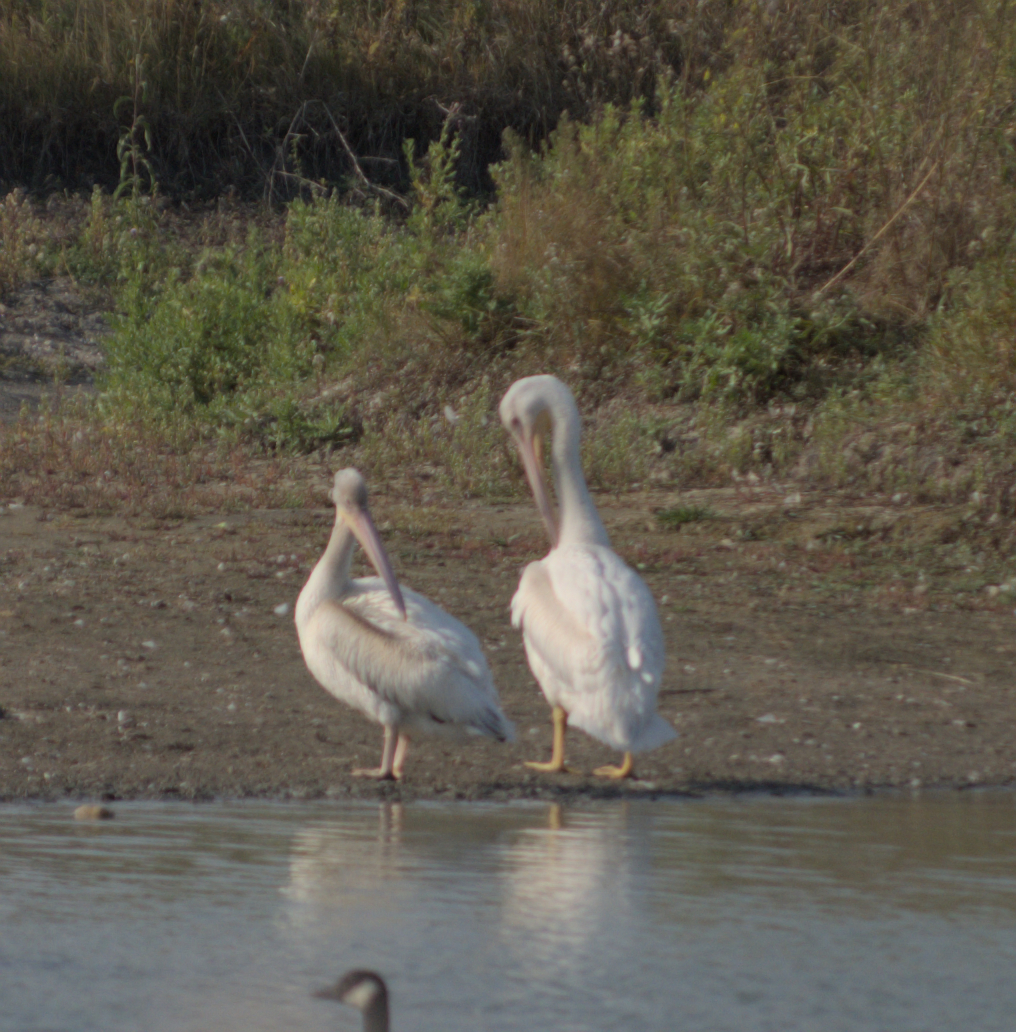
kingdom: Animalia
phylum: Chordata
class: Aves
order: Pelecaniformes
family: Pelecanidae
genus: Pelecanus
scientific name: Pelecanus erythrorhynchos
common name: American white pelican
